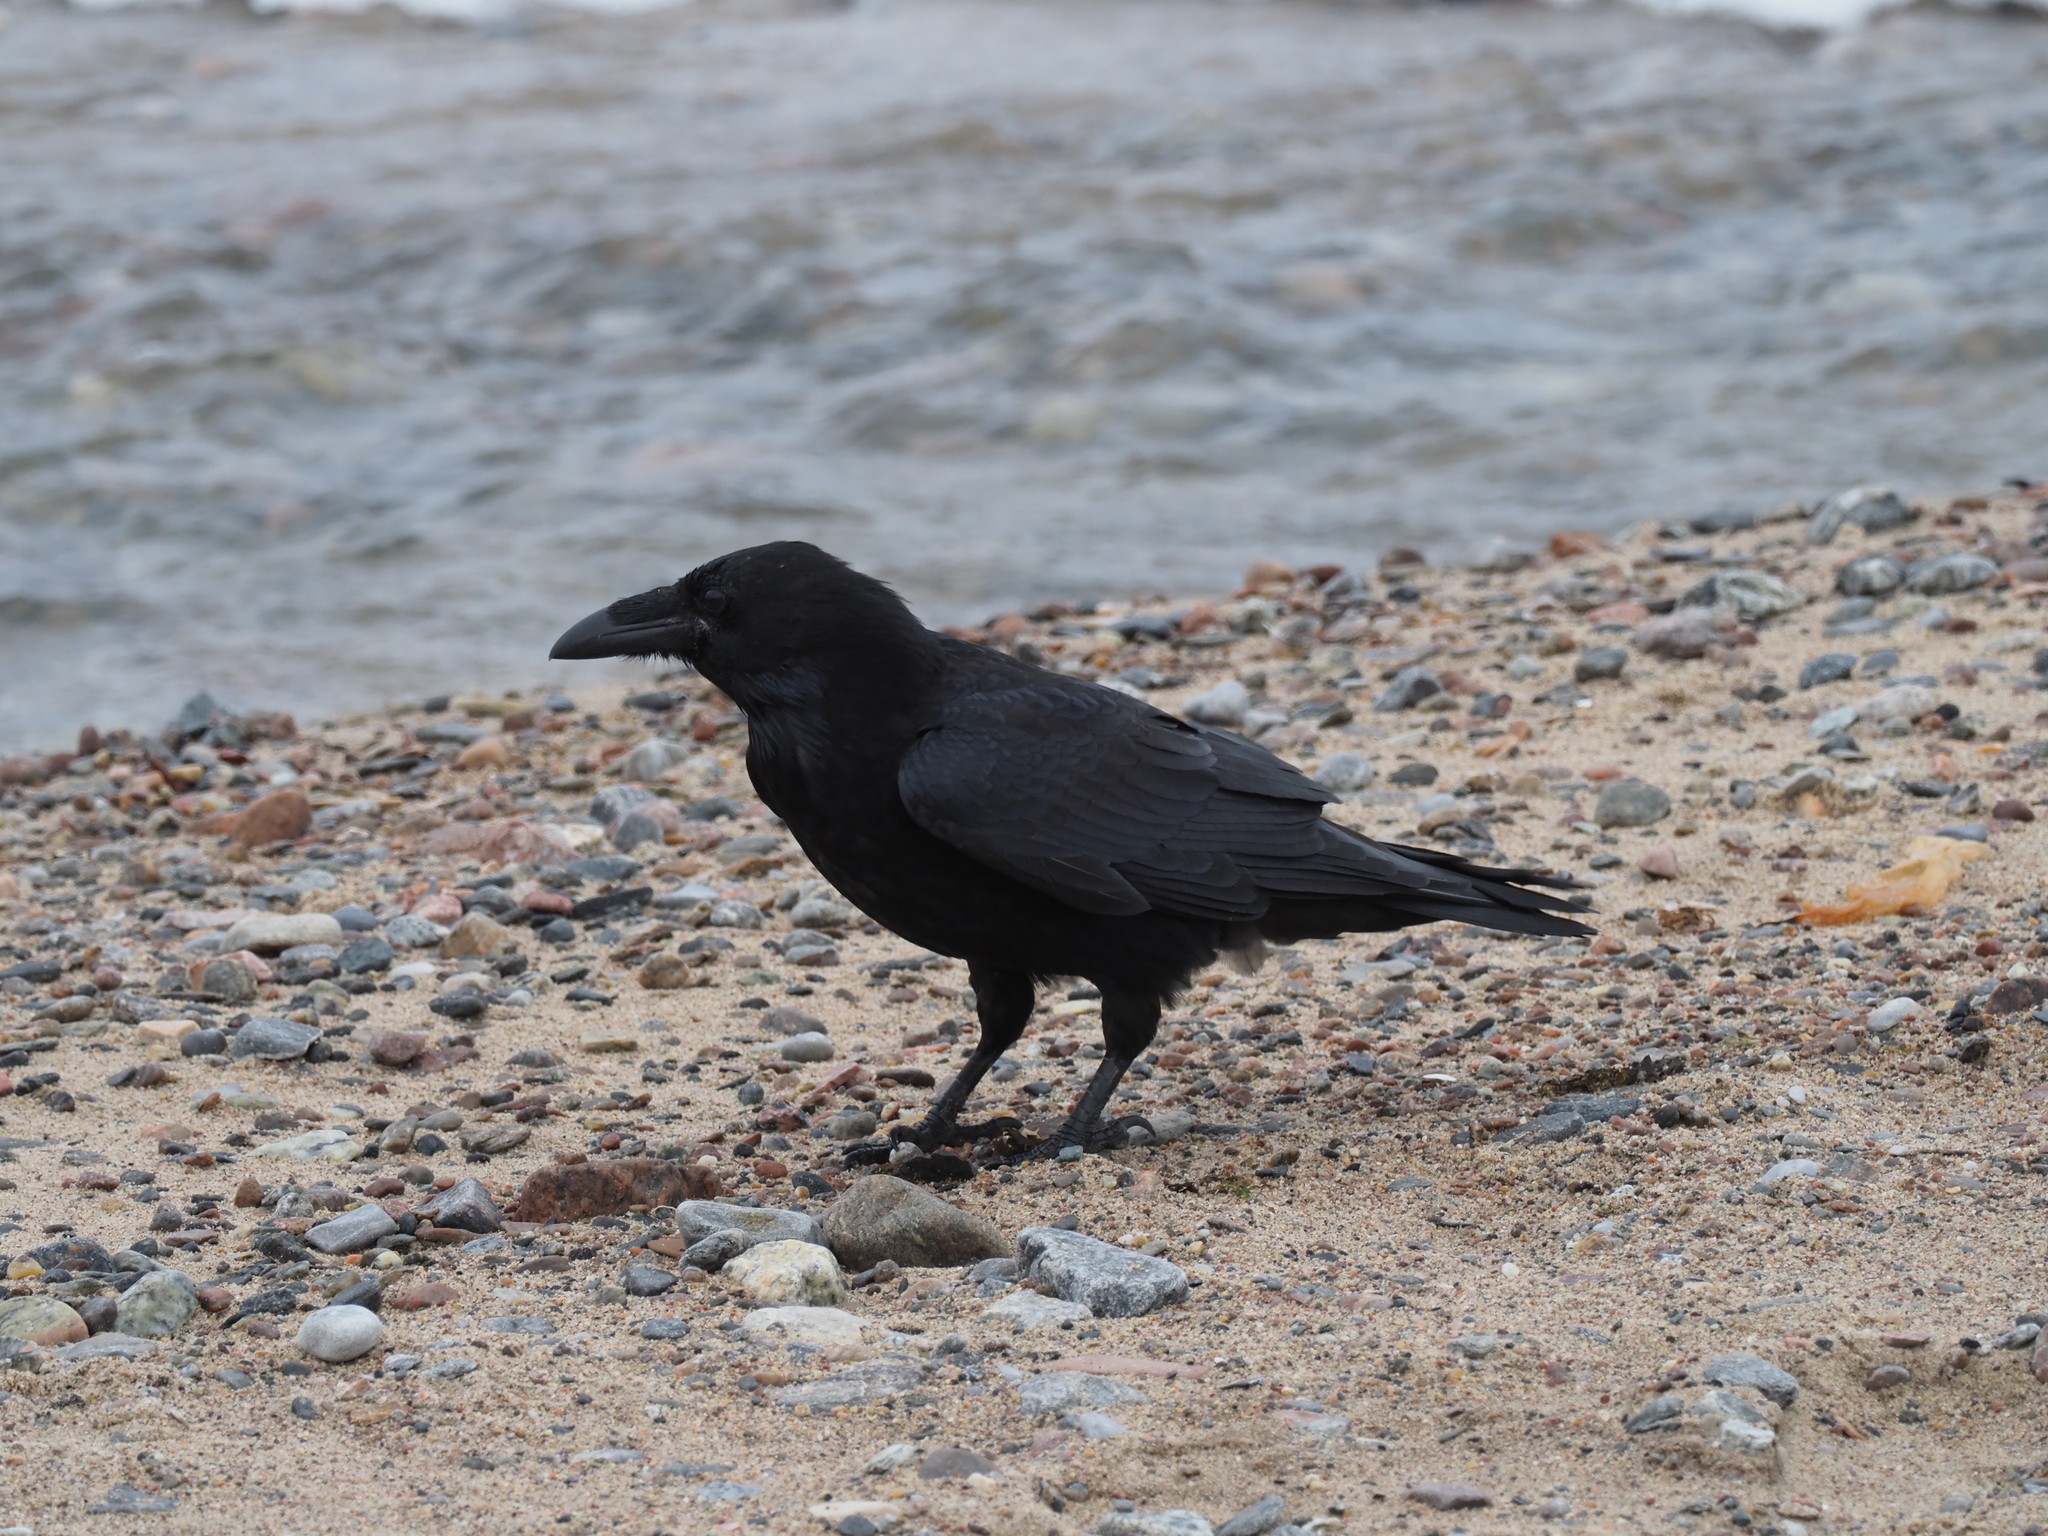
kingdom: Animalia
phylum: Chordata
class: Aves
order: Passeriformes
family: Corvidae
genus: Corvus
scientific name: Corvus corax
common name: Common raven
